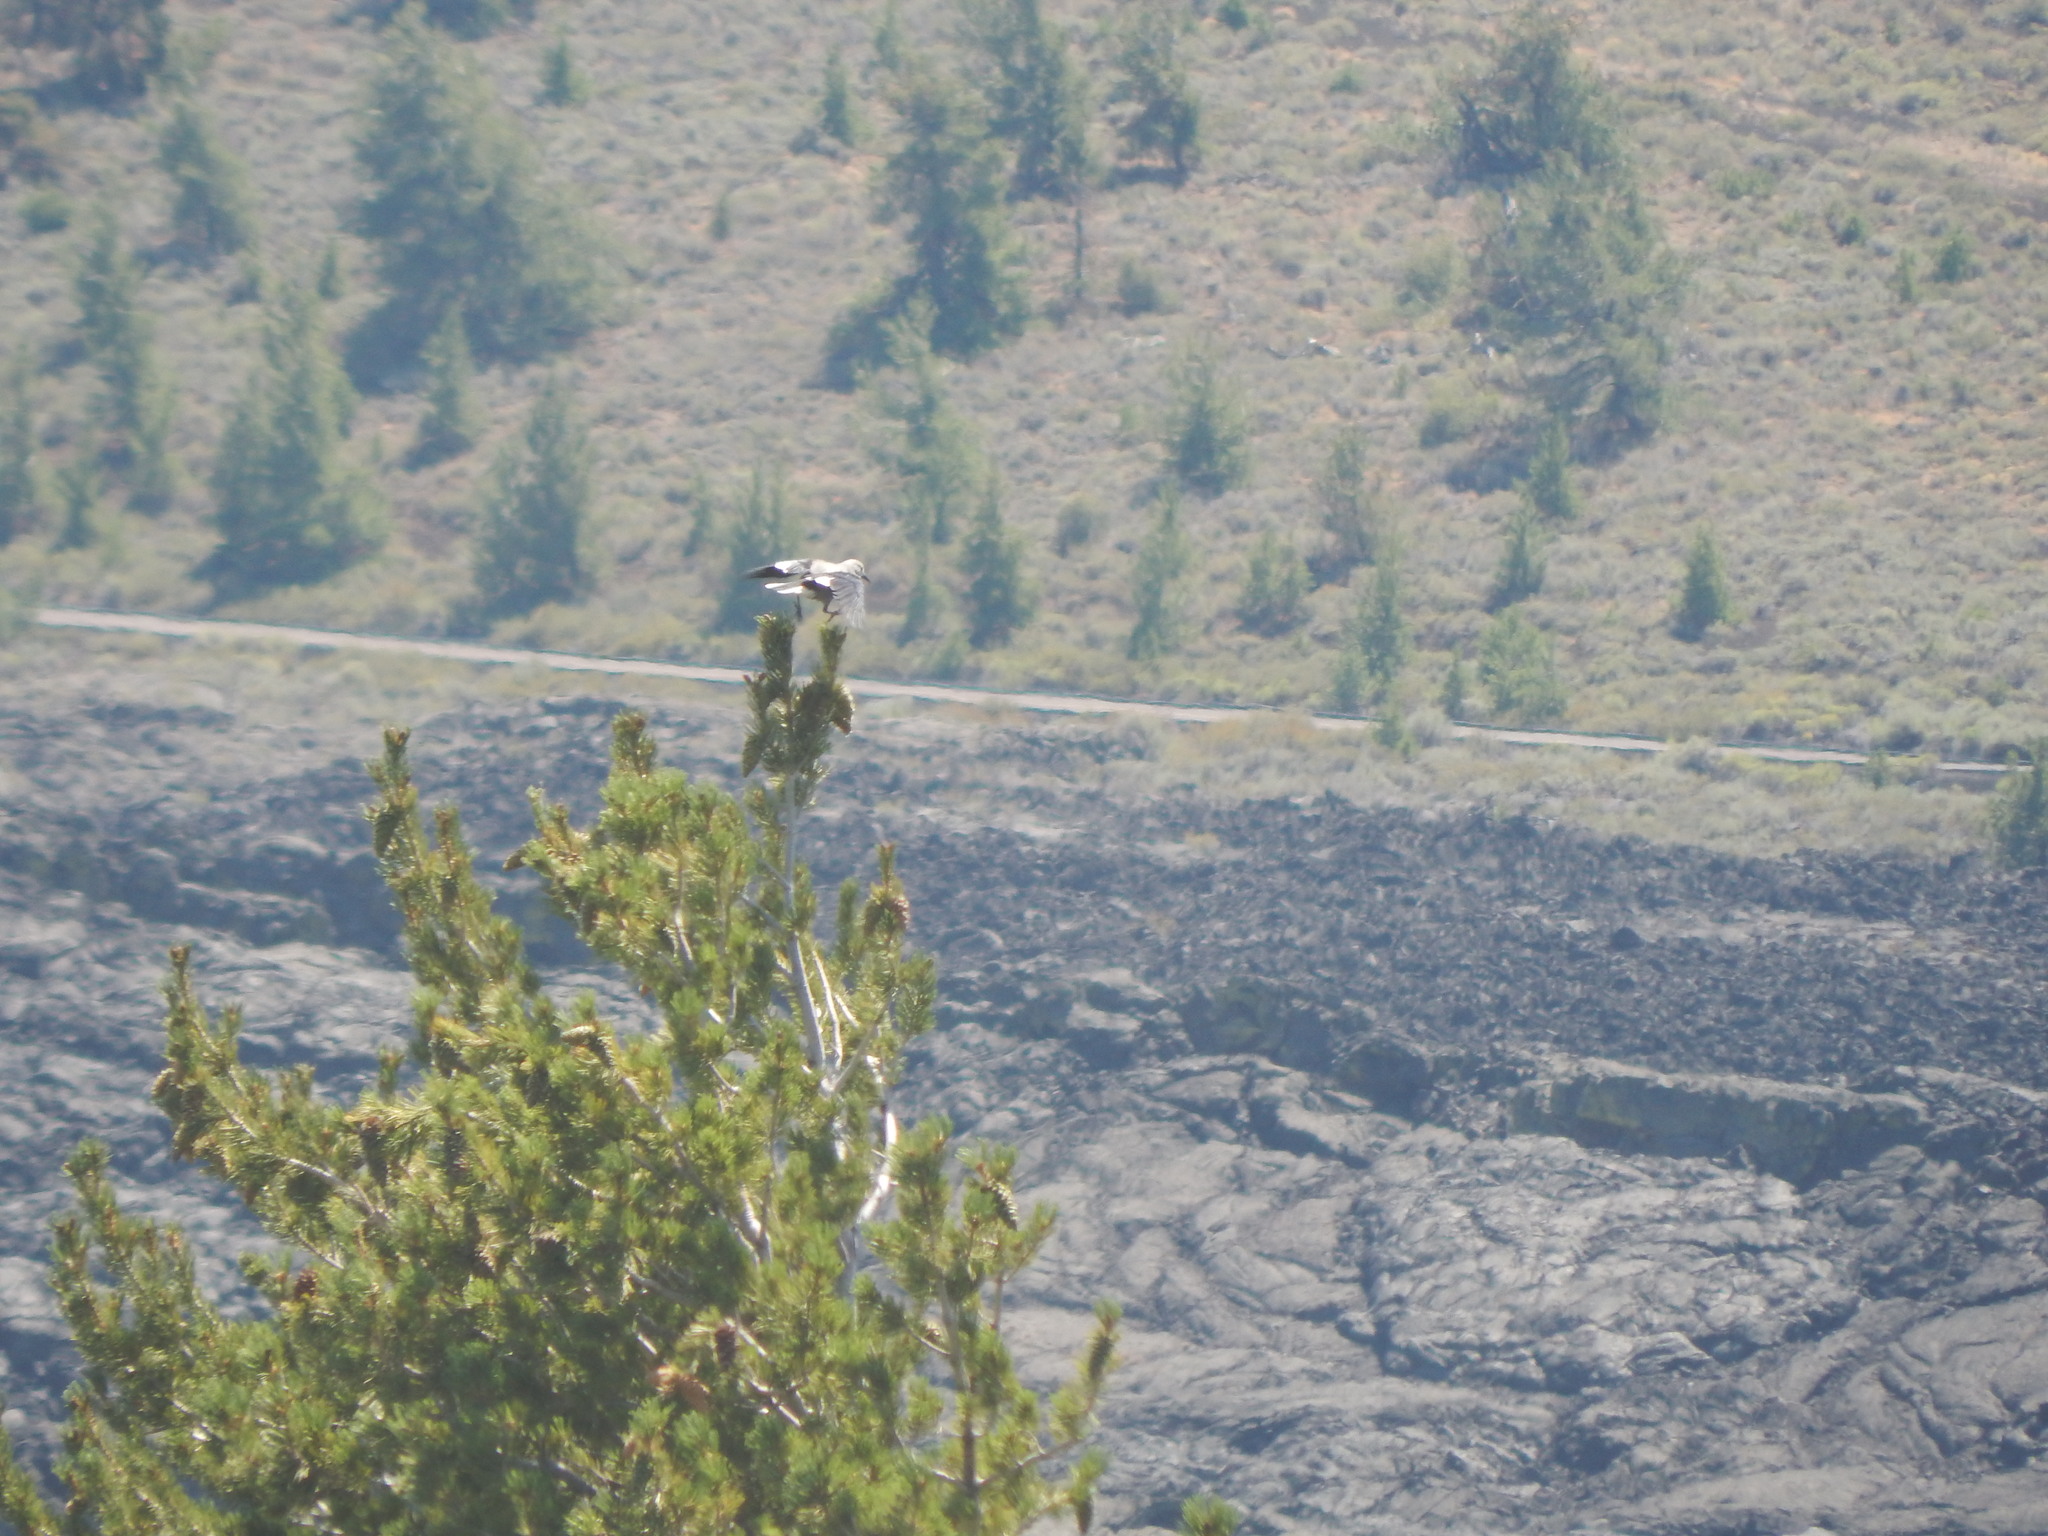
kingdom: Animalia
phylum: Chordata
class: Aves
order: Passeriformes
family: Corvidae
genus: Nucifraga
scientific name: Nucifraga columbiana
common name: Clark's nutcracker
